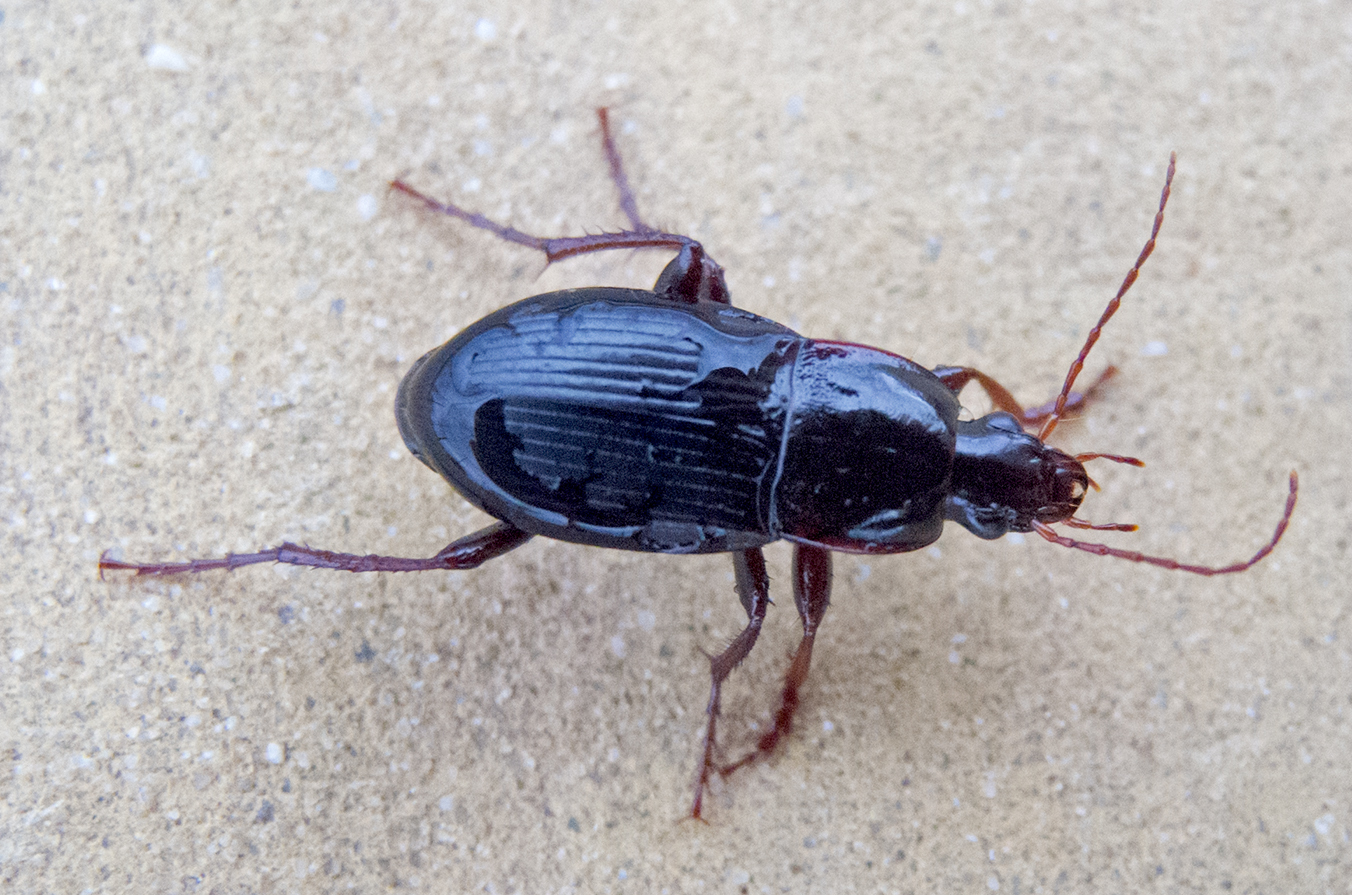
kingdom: Animalia
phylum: Arthropoda
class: Insecta
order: Coleoptera
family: Carabidae
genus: Calathus
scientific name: Calathus fuscipes
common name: Dark-footed harp ground beetle
